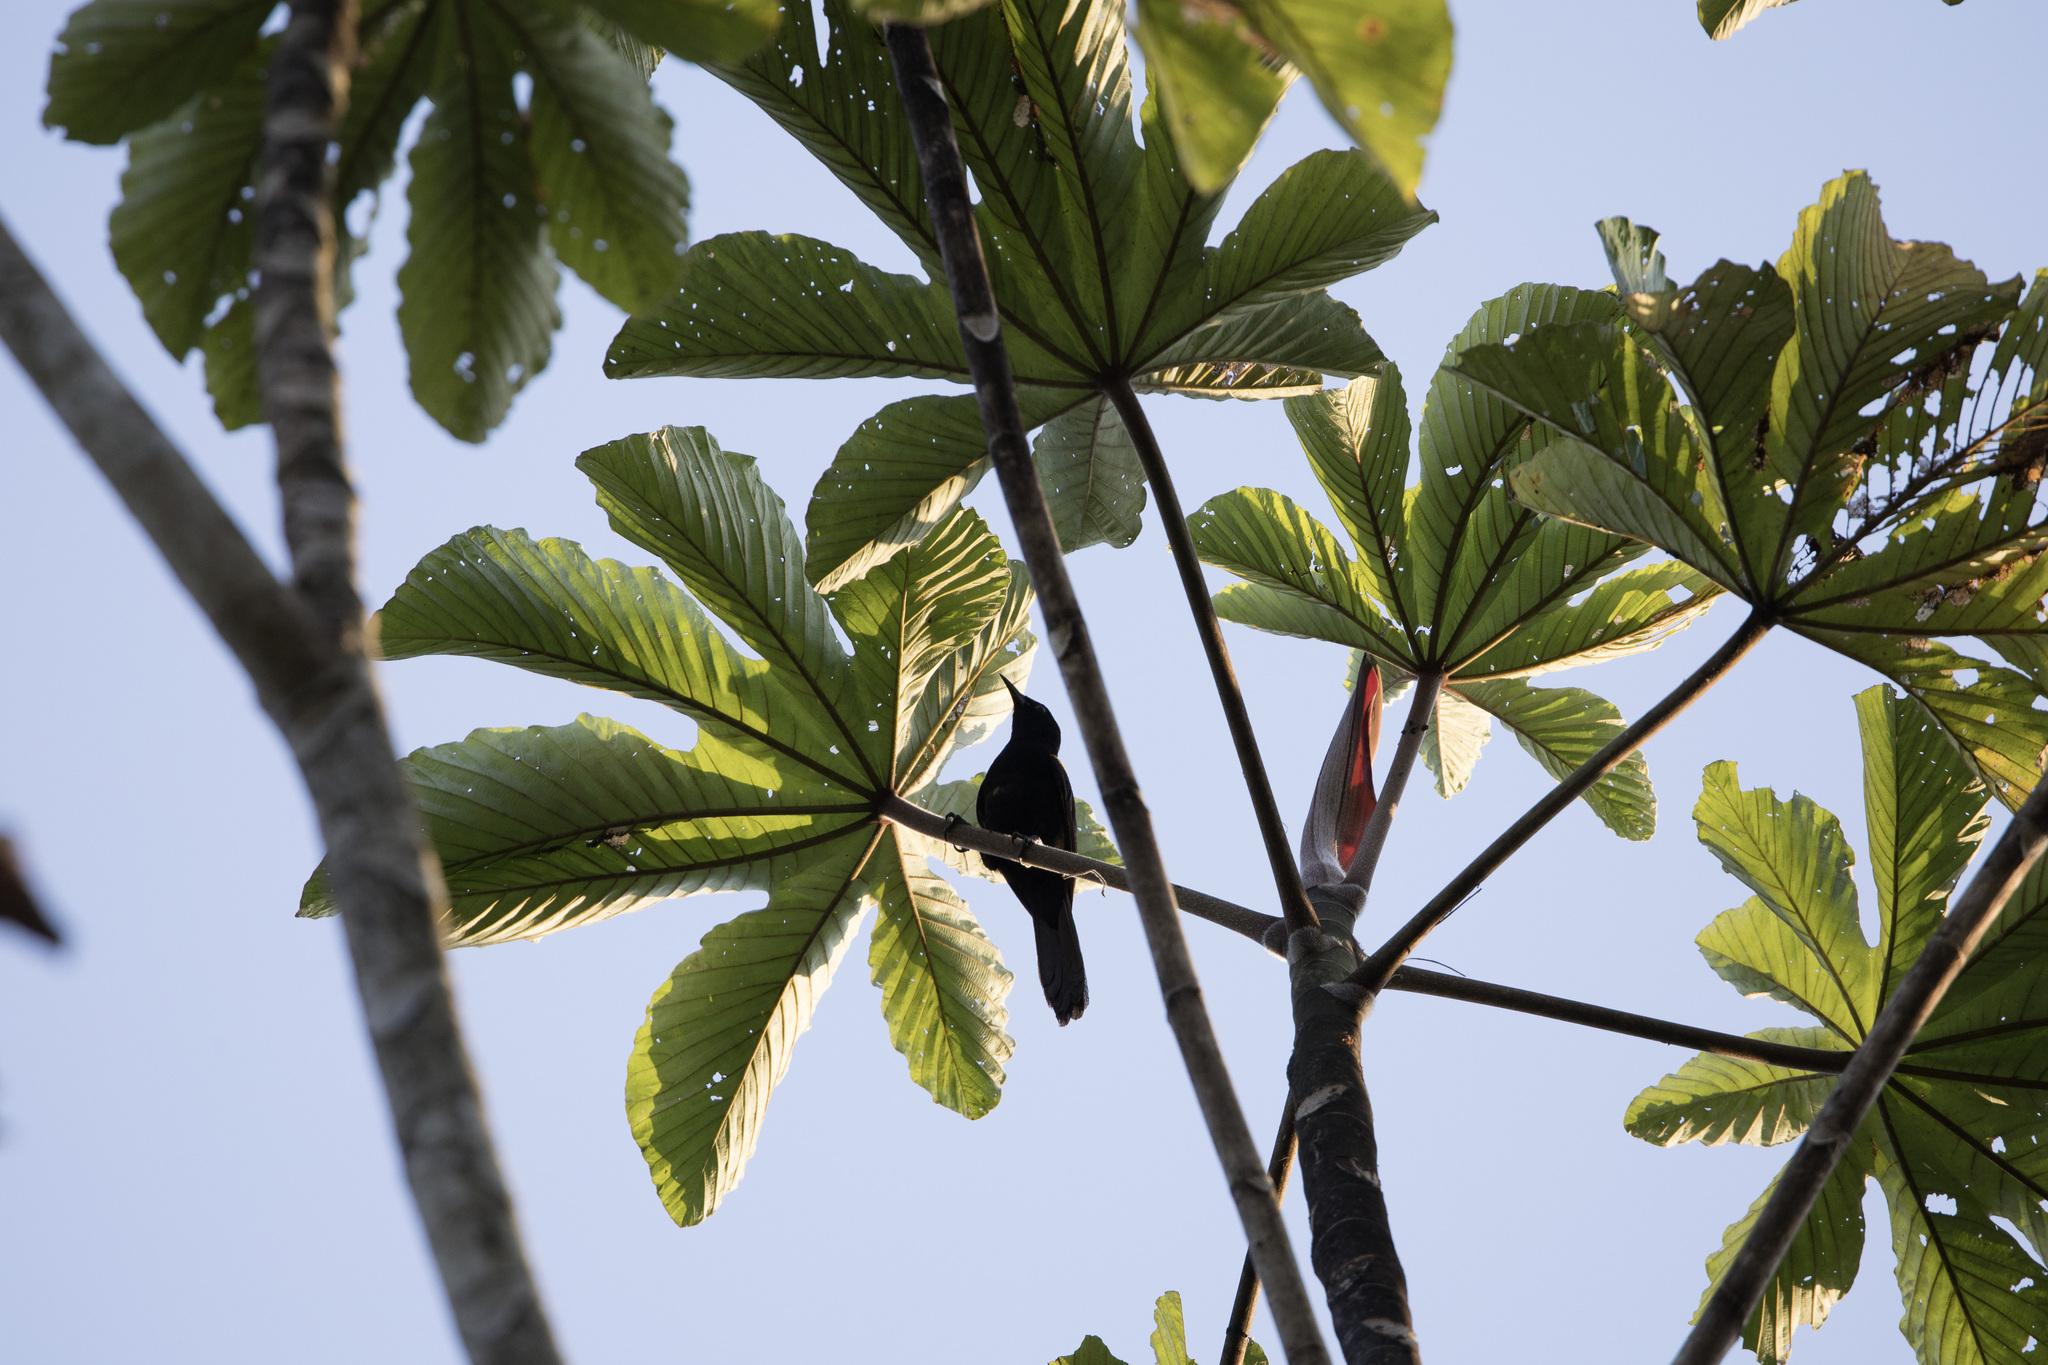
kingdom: Animalia
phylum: Chordata
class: Aves
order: Passeriformes
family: Icteridae
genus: Icterus
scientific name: Icterus cayanensis
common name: Epaulet oriole
